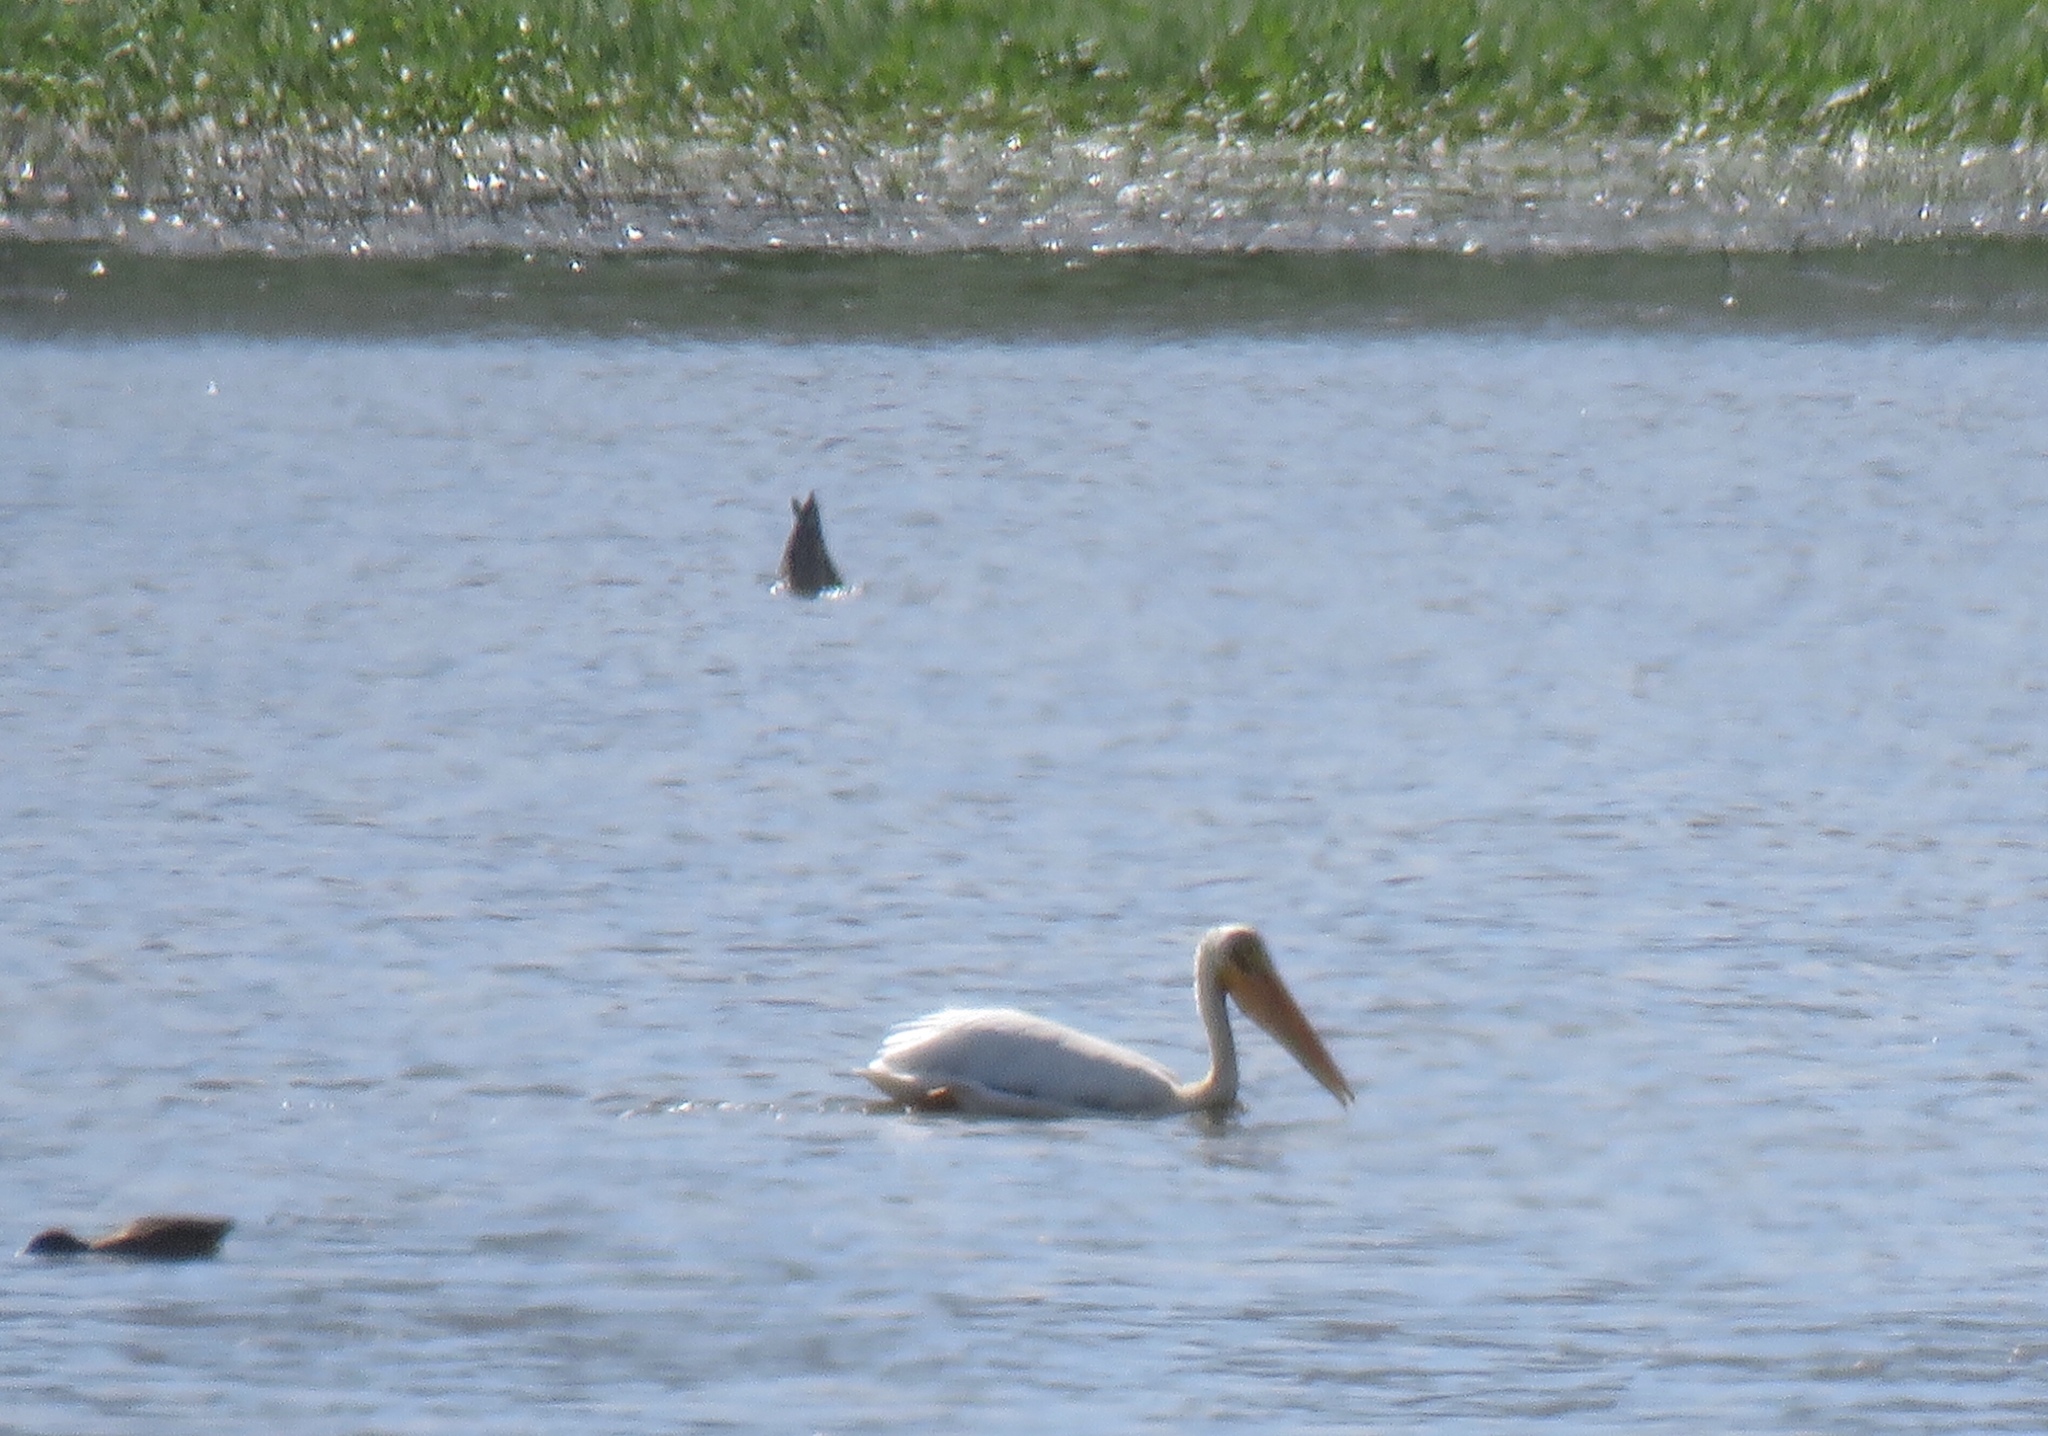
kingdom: Animalia
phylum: Chordata
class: Aves
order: Pelecaniformes
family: Pelecanidae
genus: Pelecanus
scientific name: Pelecanus erythrorhynchos
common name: American white pelican
